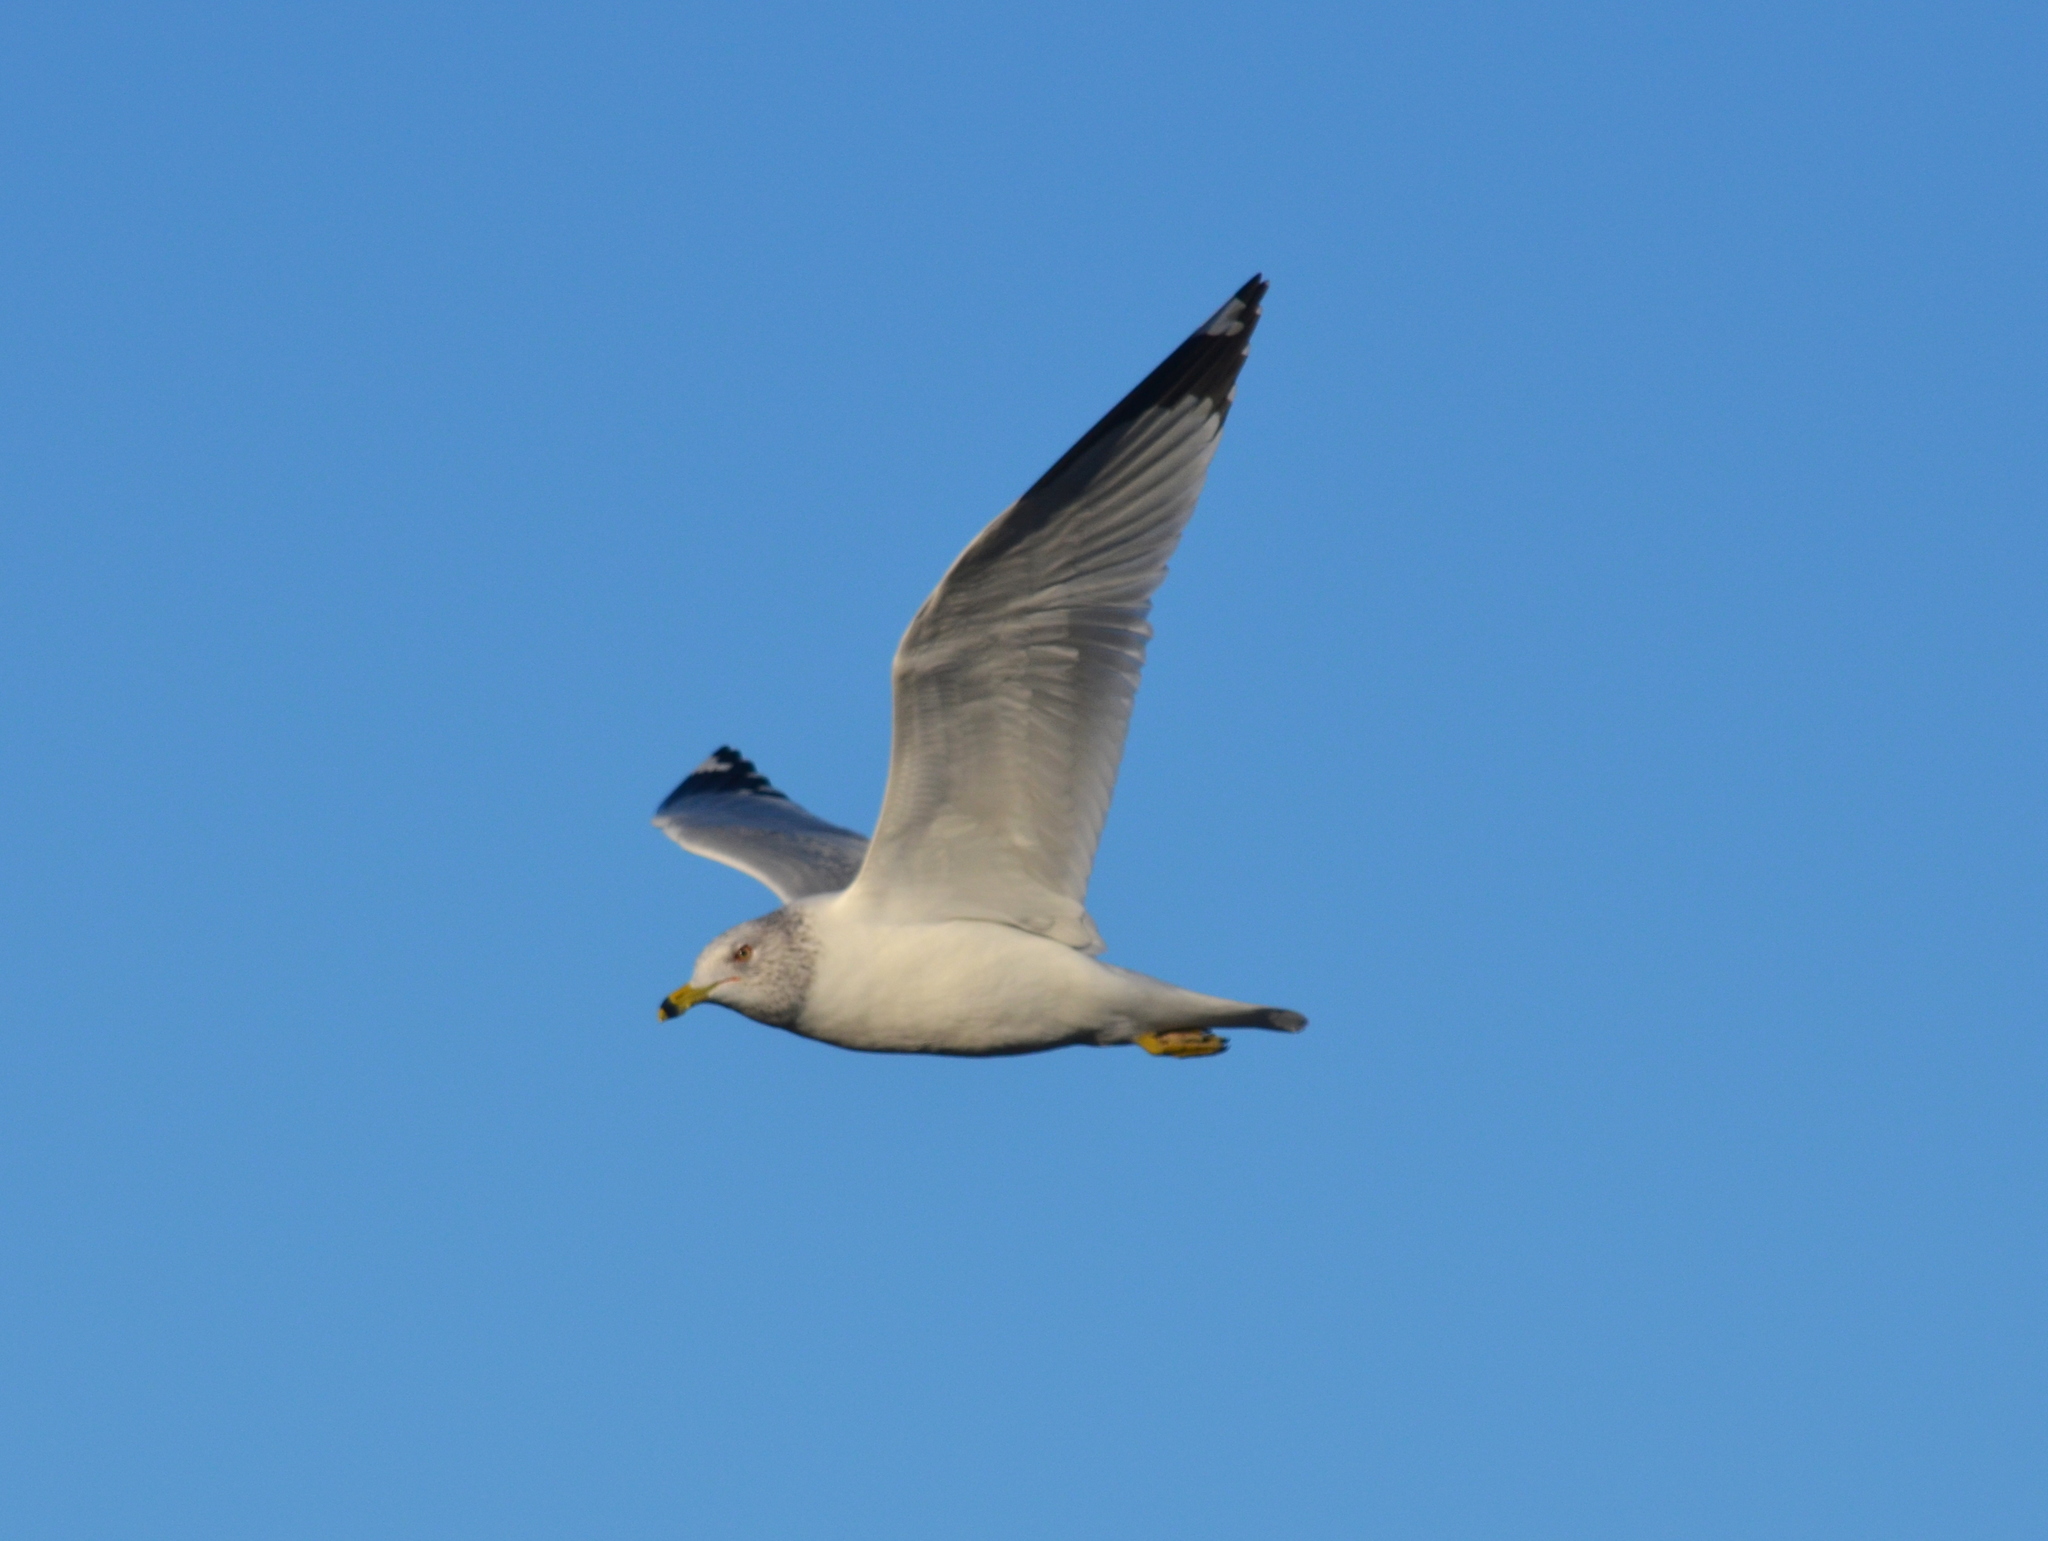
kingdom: Animalia
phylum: Chordata
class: Aves
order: Charadriiformes
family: Laridae
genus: Larus
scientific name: Larus delawarensis
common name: Ring-billed gull
